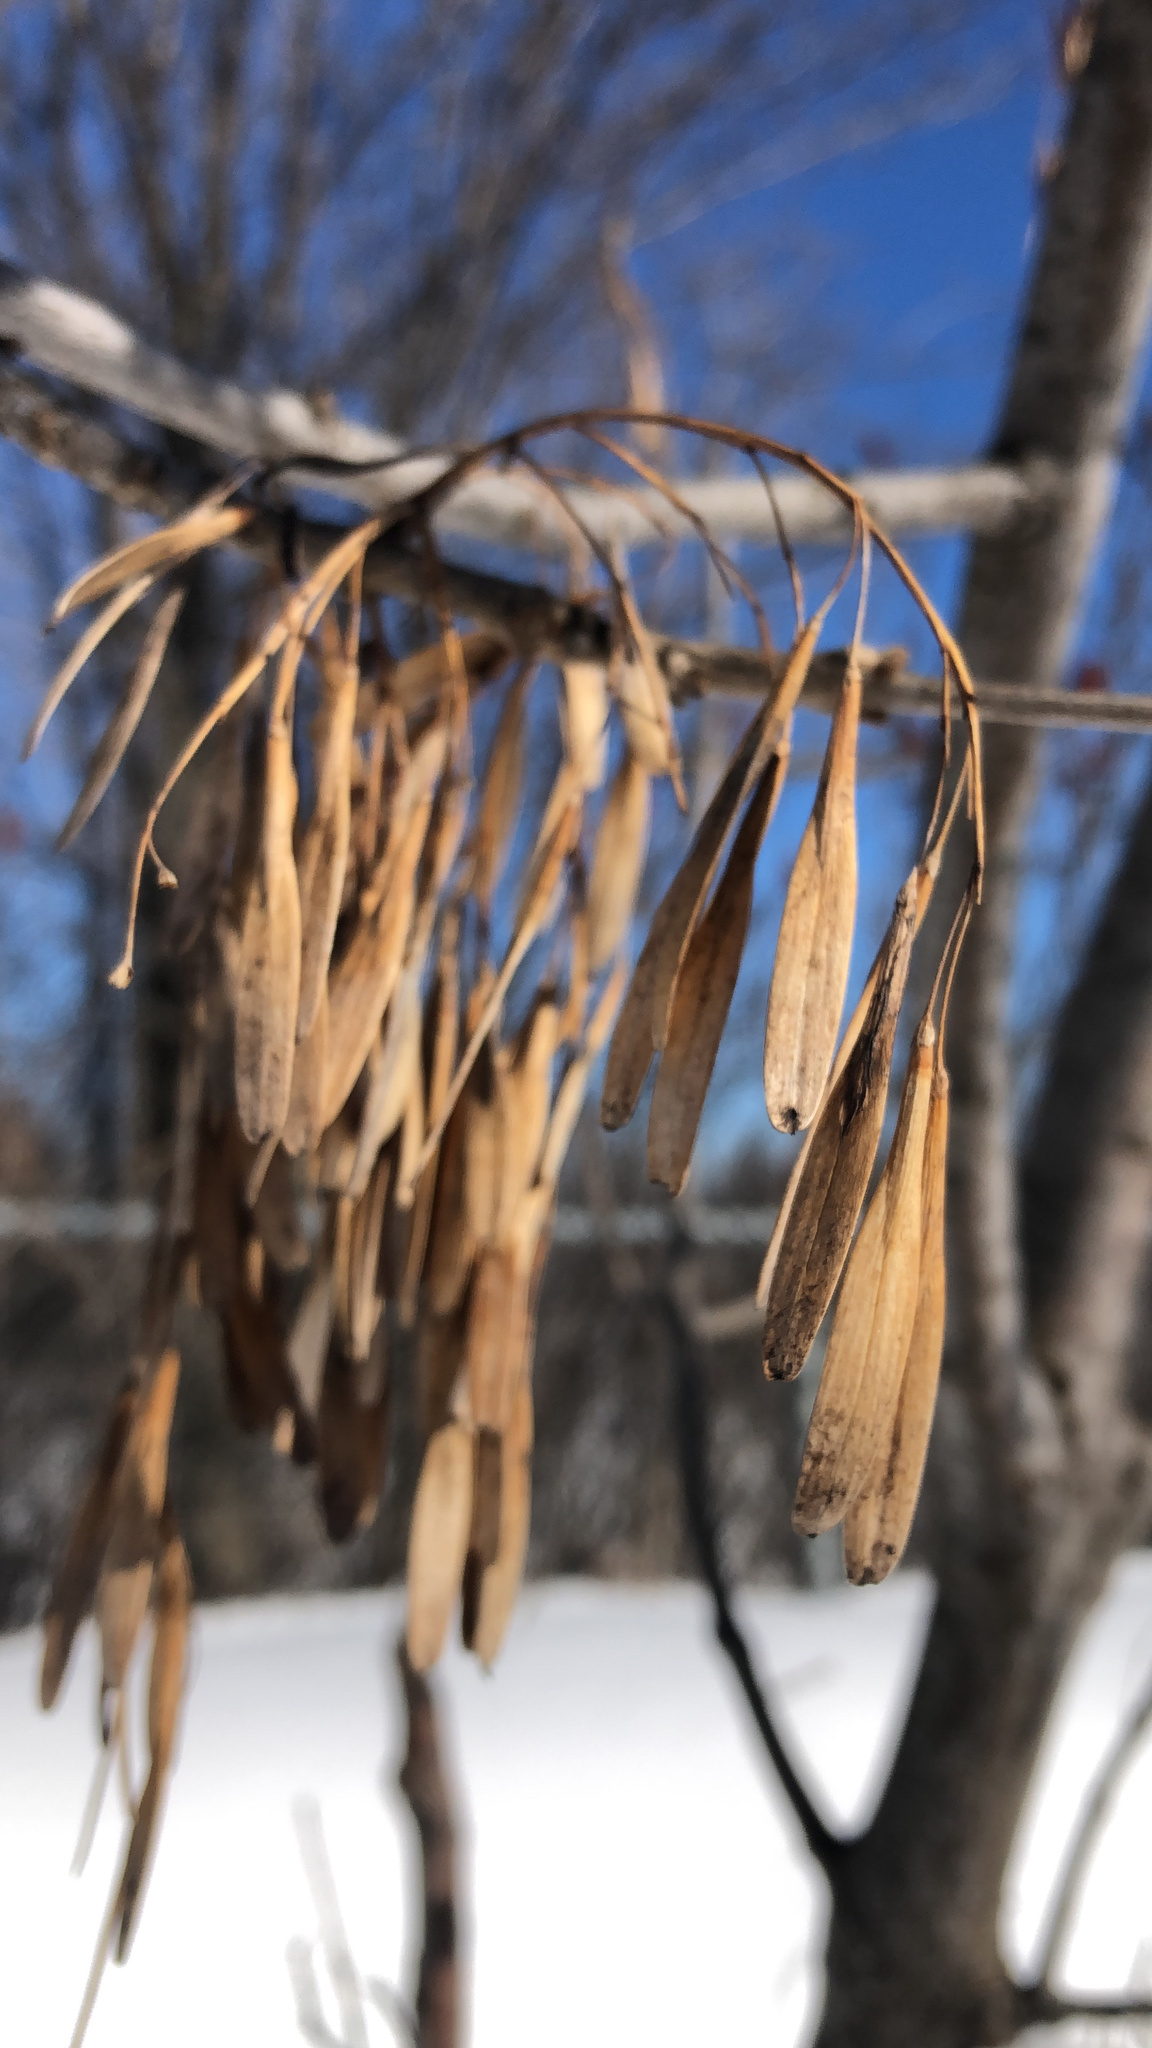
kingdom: Plantae
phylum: Tracheophyta
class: Magnoliopsida
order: Lamiales
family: Oleaceae
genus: Fraxinus
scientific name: Fraxinus pennsylvanica
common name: Green ash
